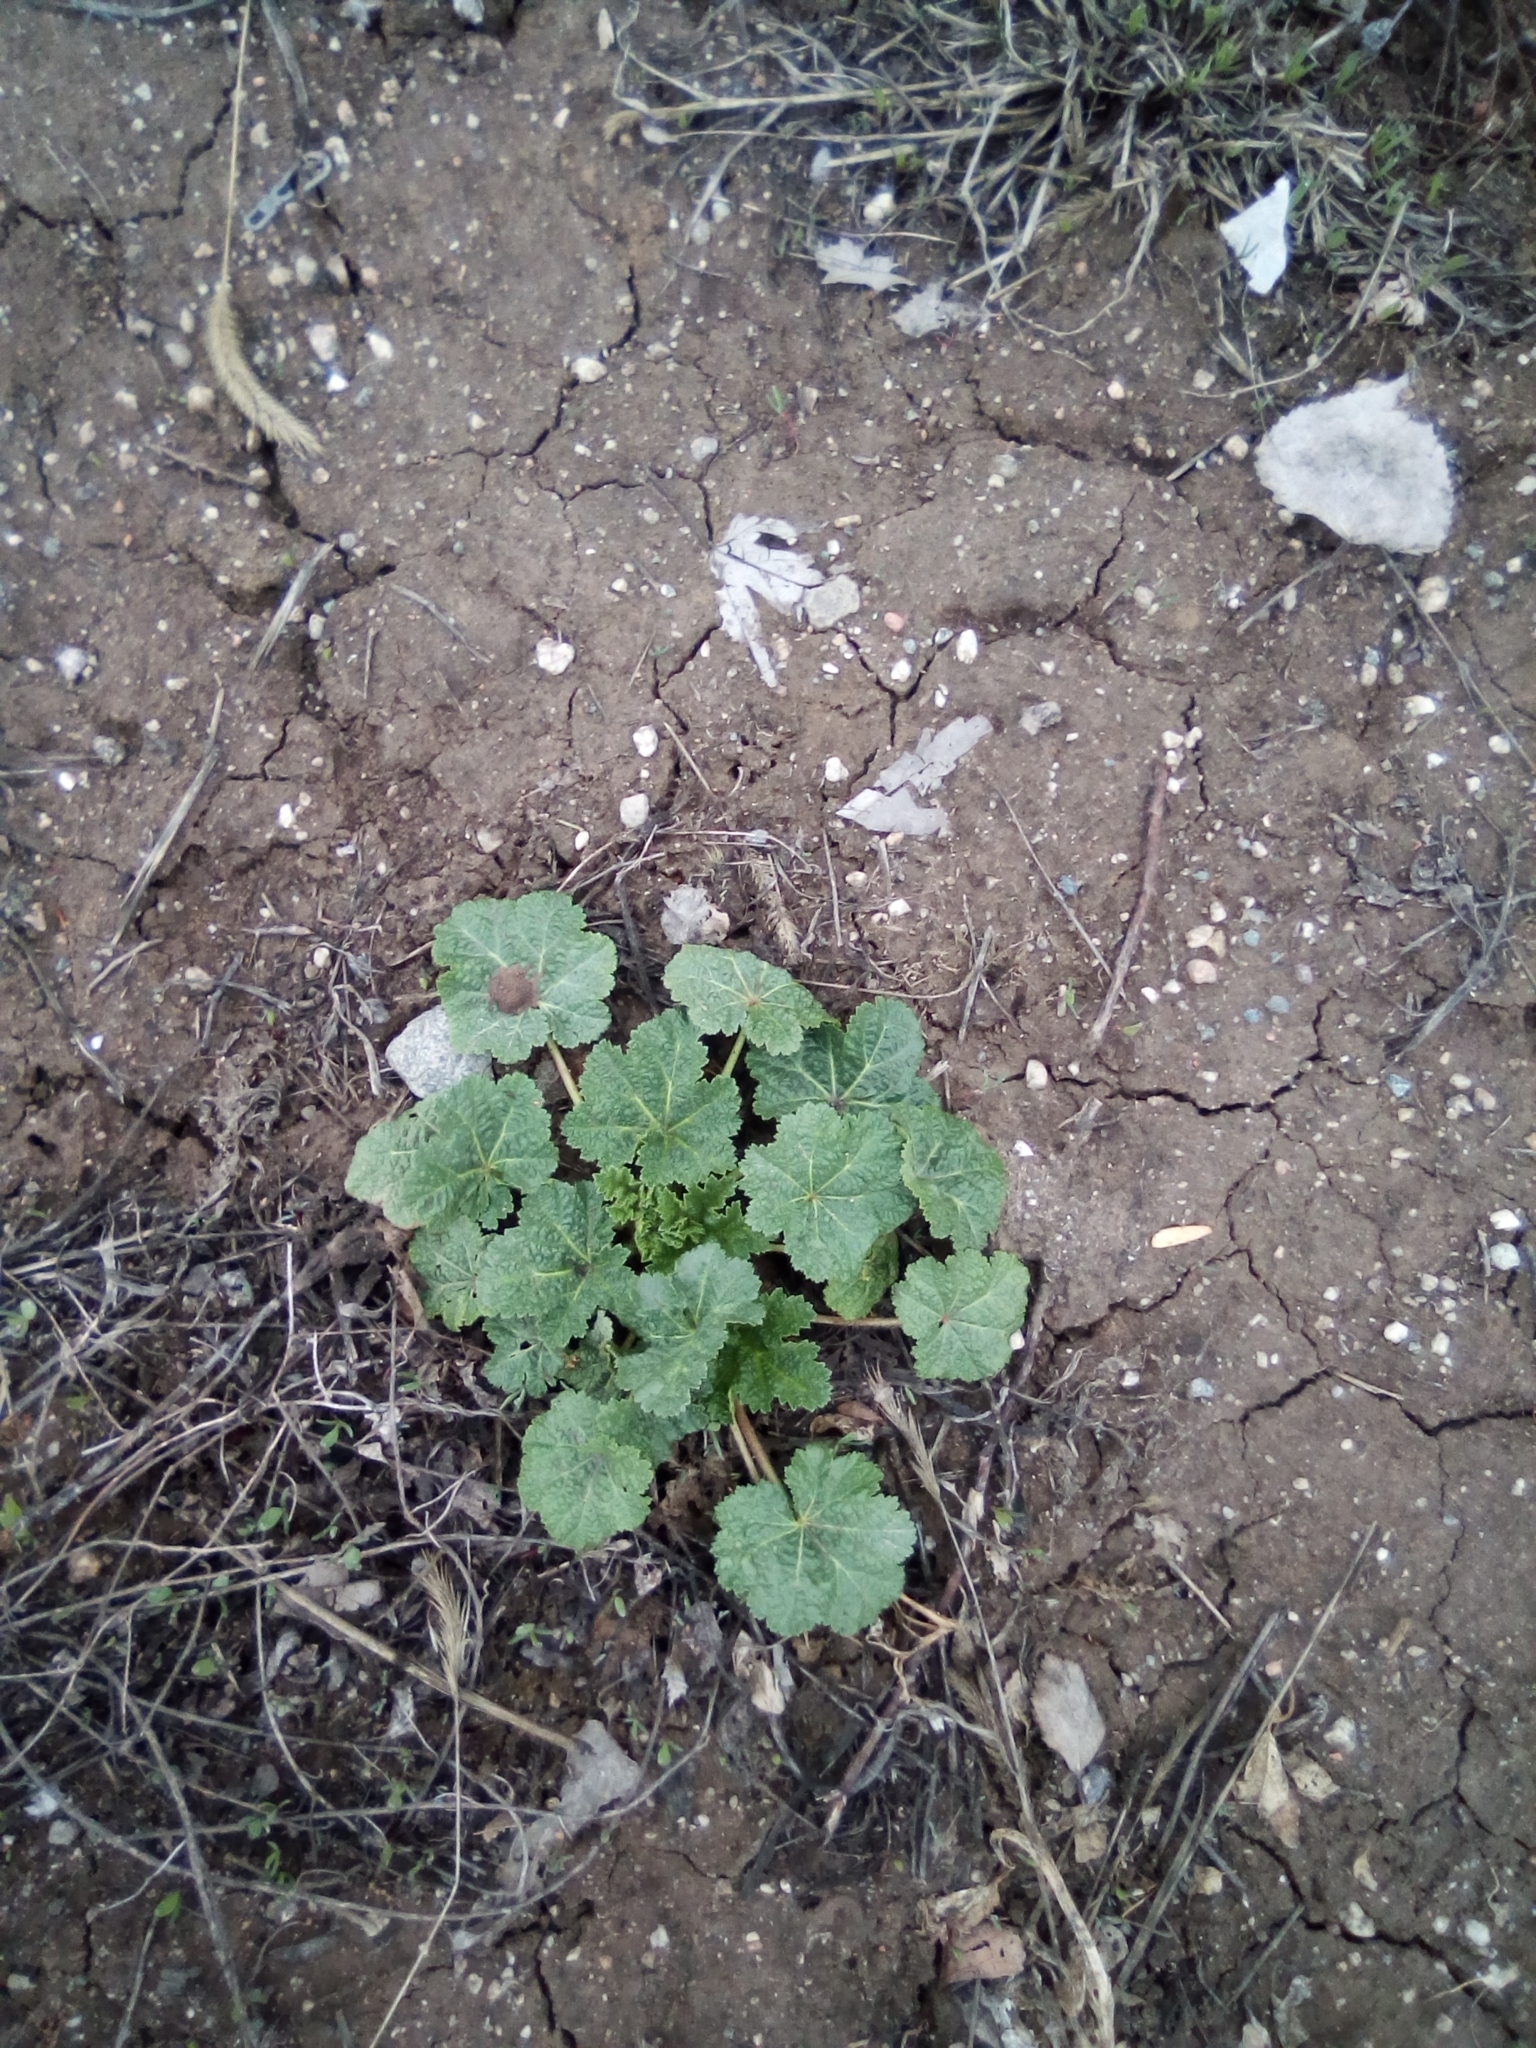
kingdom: Plantae
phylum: Tracheophyta
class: Magnoliopsida
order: Malvales
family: Malvaceae
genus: Malva
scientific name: Malva neglecta
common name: Common mallow
